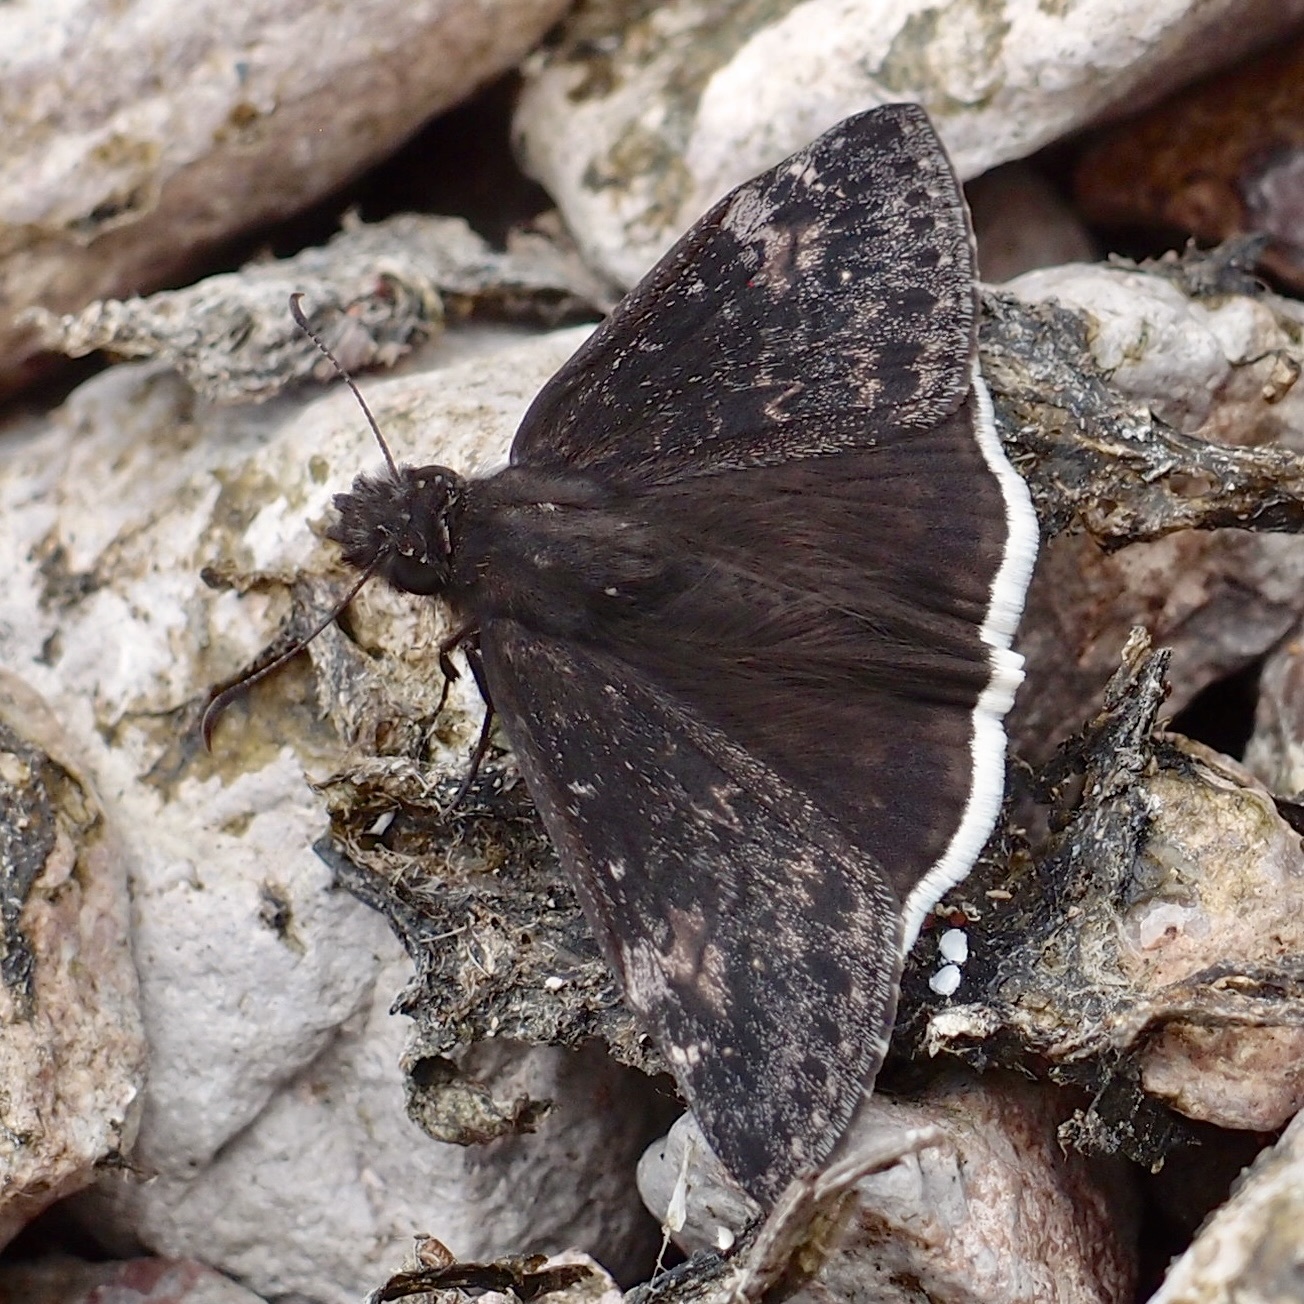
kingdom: Animalia
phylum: Arthropoda
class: Insecta
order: Lepidoptera
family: Hesperiidae
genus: Erynnis
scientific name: Erynnis funeralis
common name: Funereal duskywing
